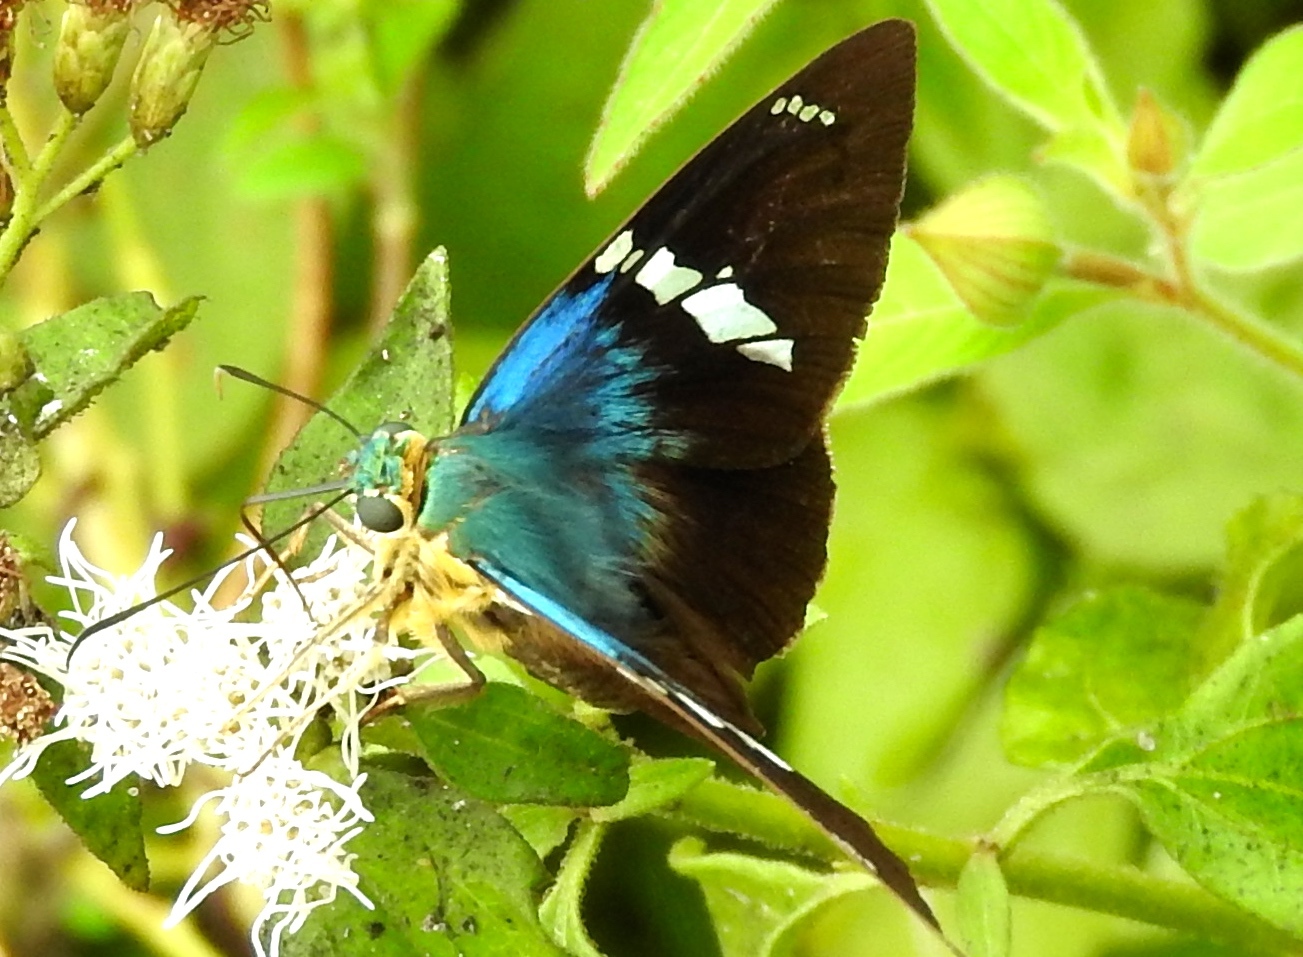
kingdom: Animalia
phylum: Arthropoda
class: Insecta
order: Lepidoptera
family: Hesperiidae
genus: Astraptes
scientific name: Astraptes fulgerator
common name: Two-barred flasher
